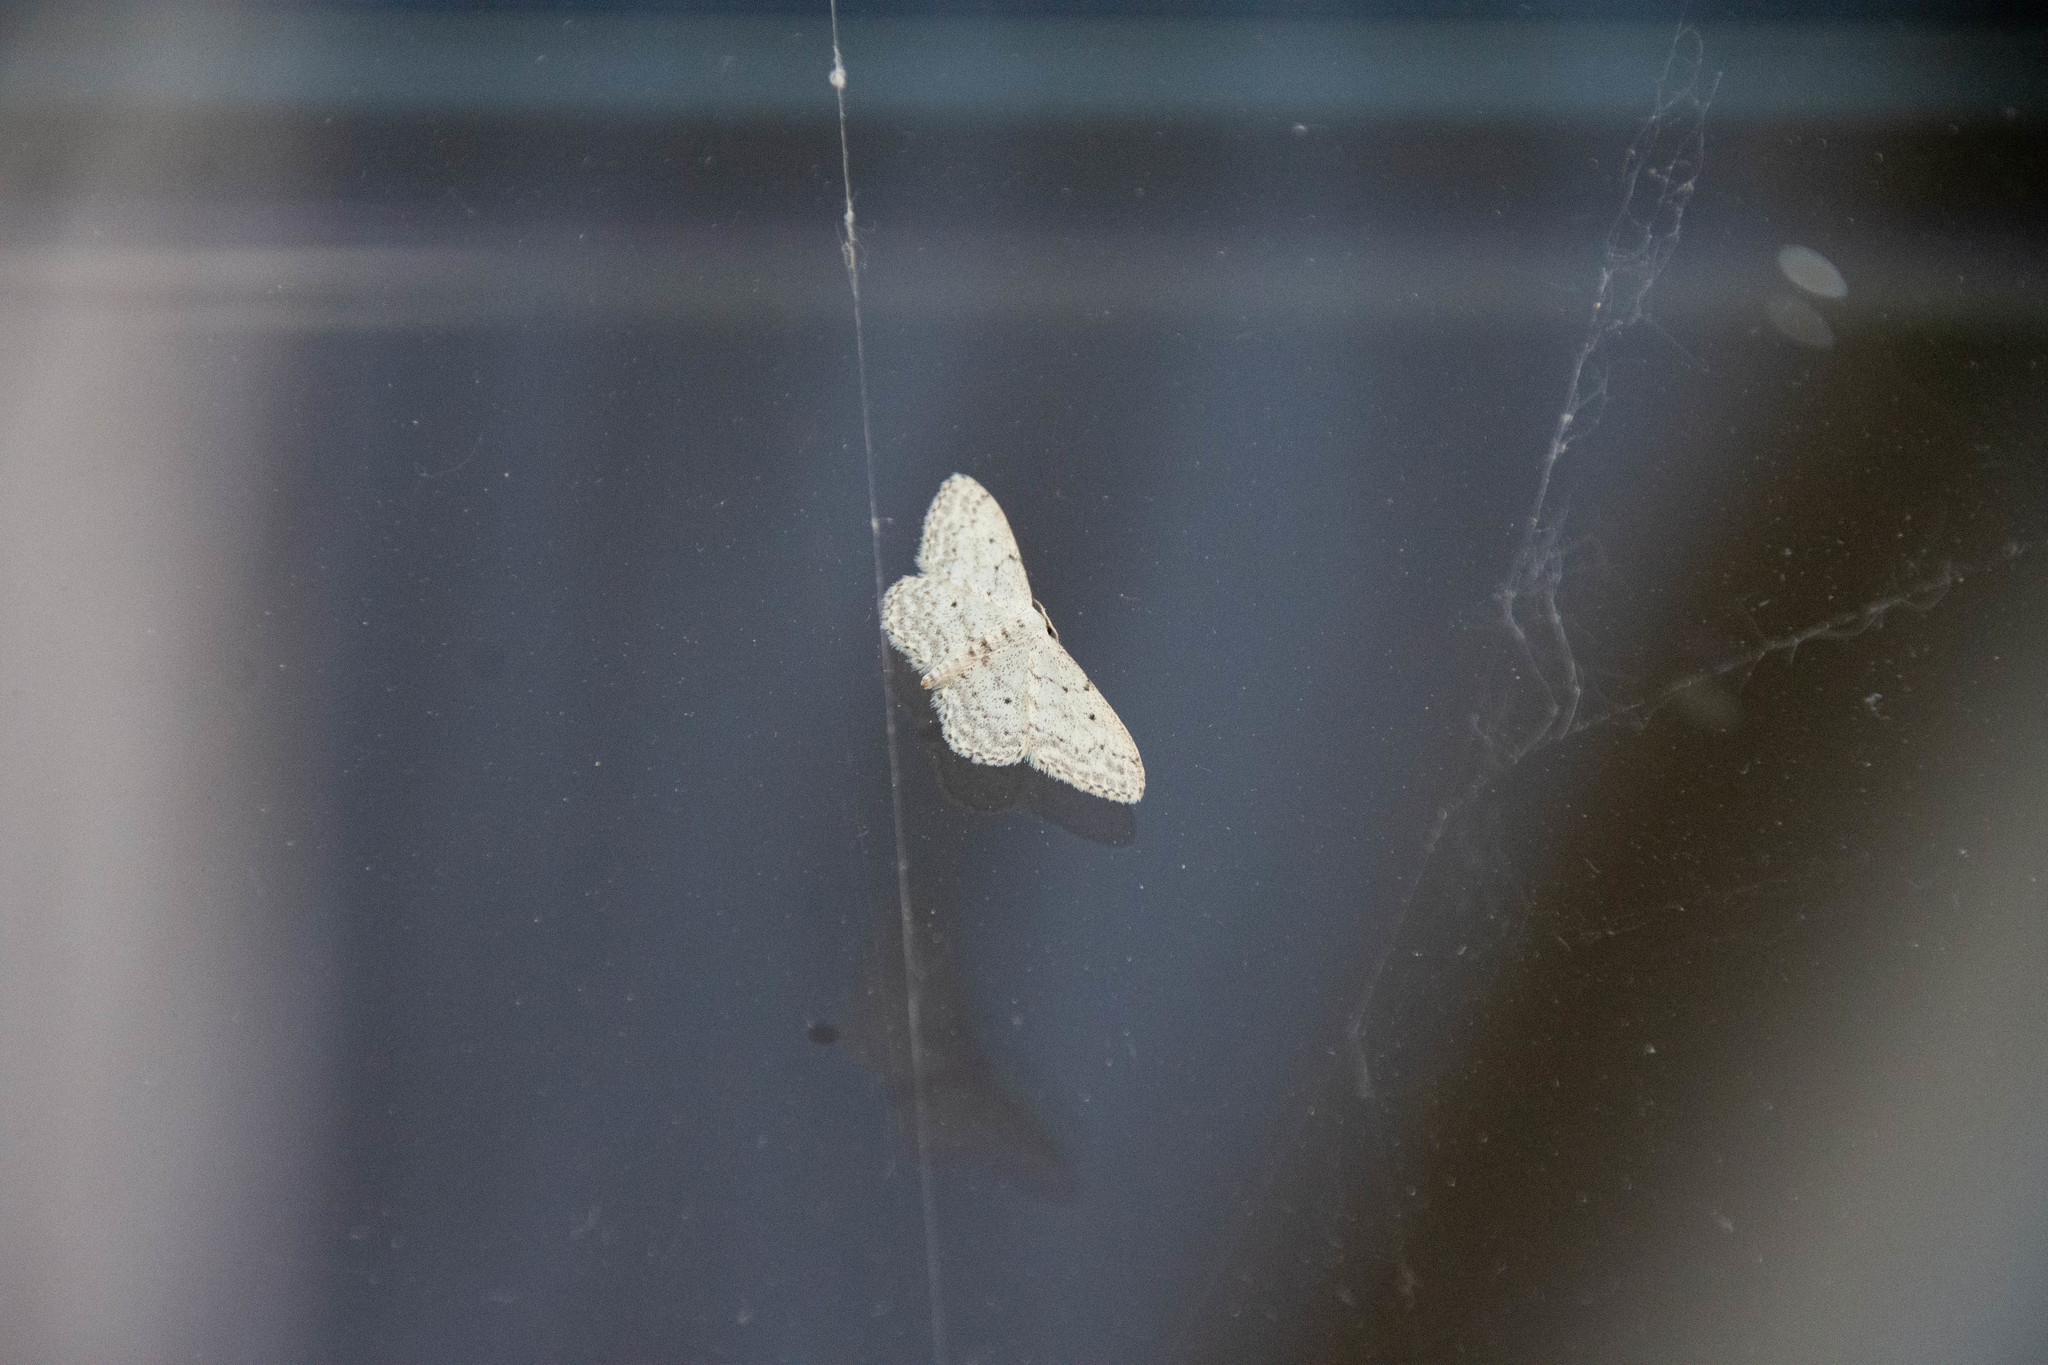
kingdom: Animalia
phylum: Arthropoda
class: Insecta
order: Lepidoptera
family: Geometridae
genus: Idaea
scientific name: Idaea seriata
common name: Small dusty wave
